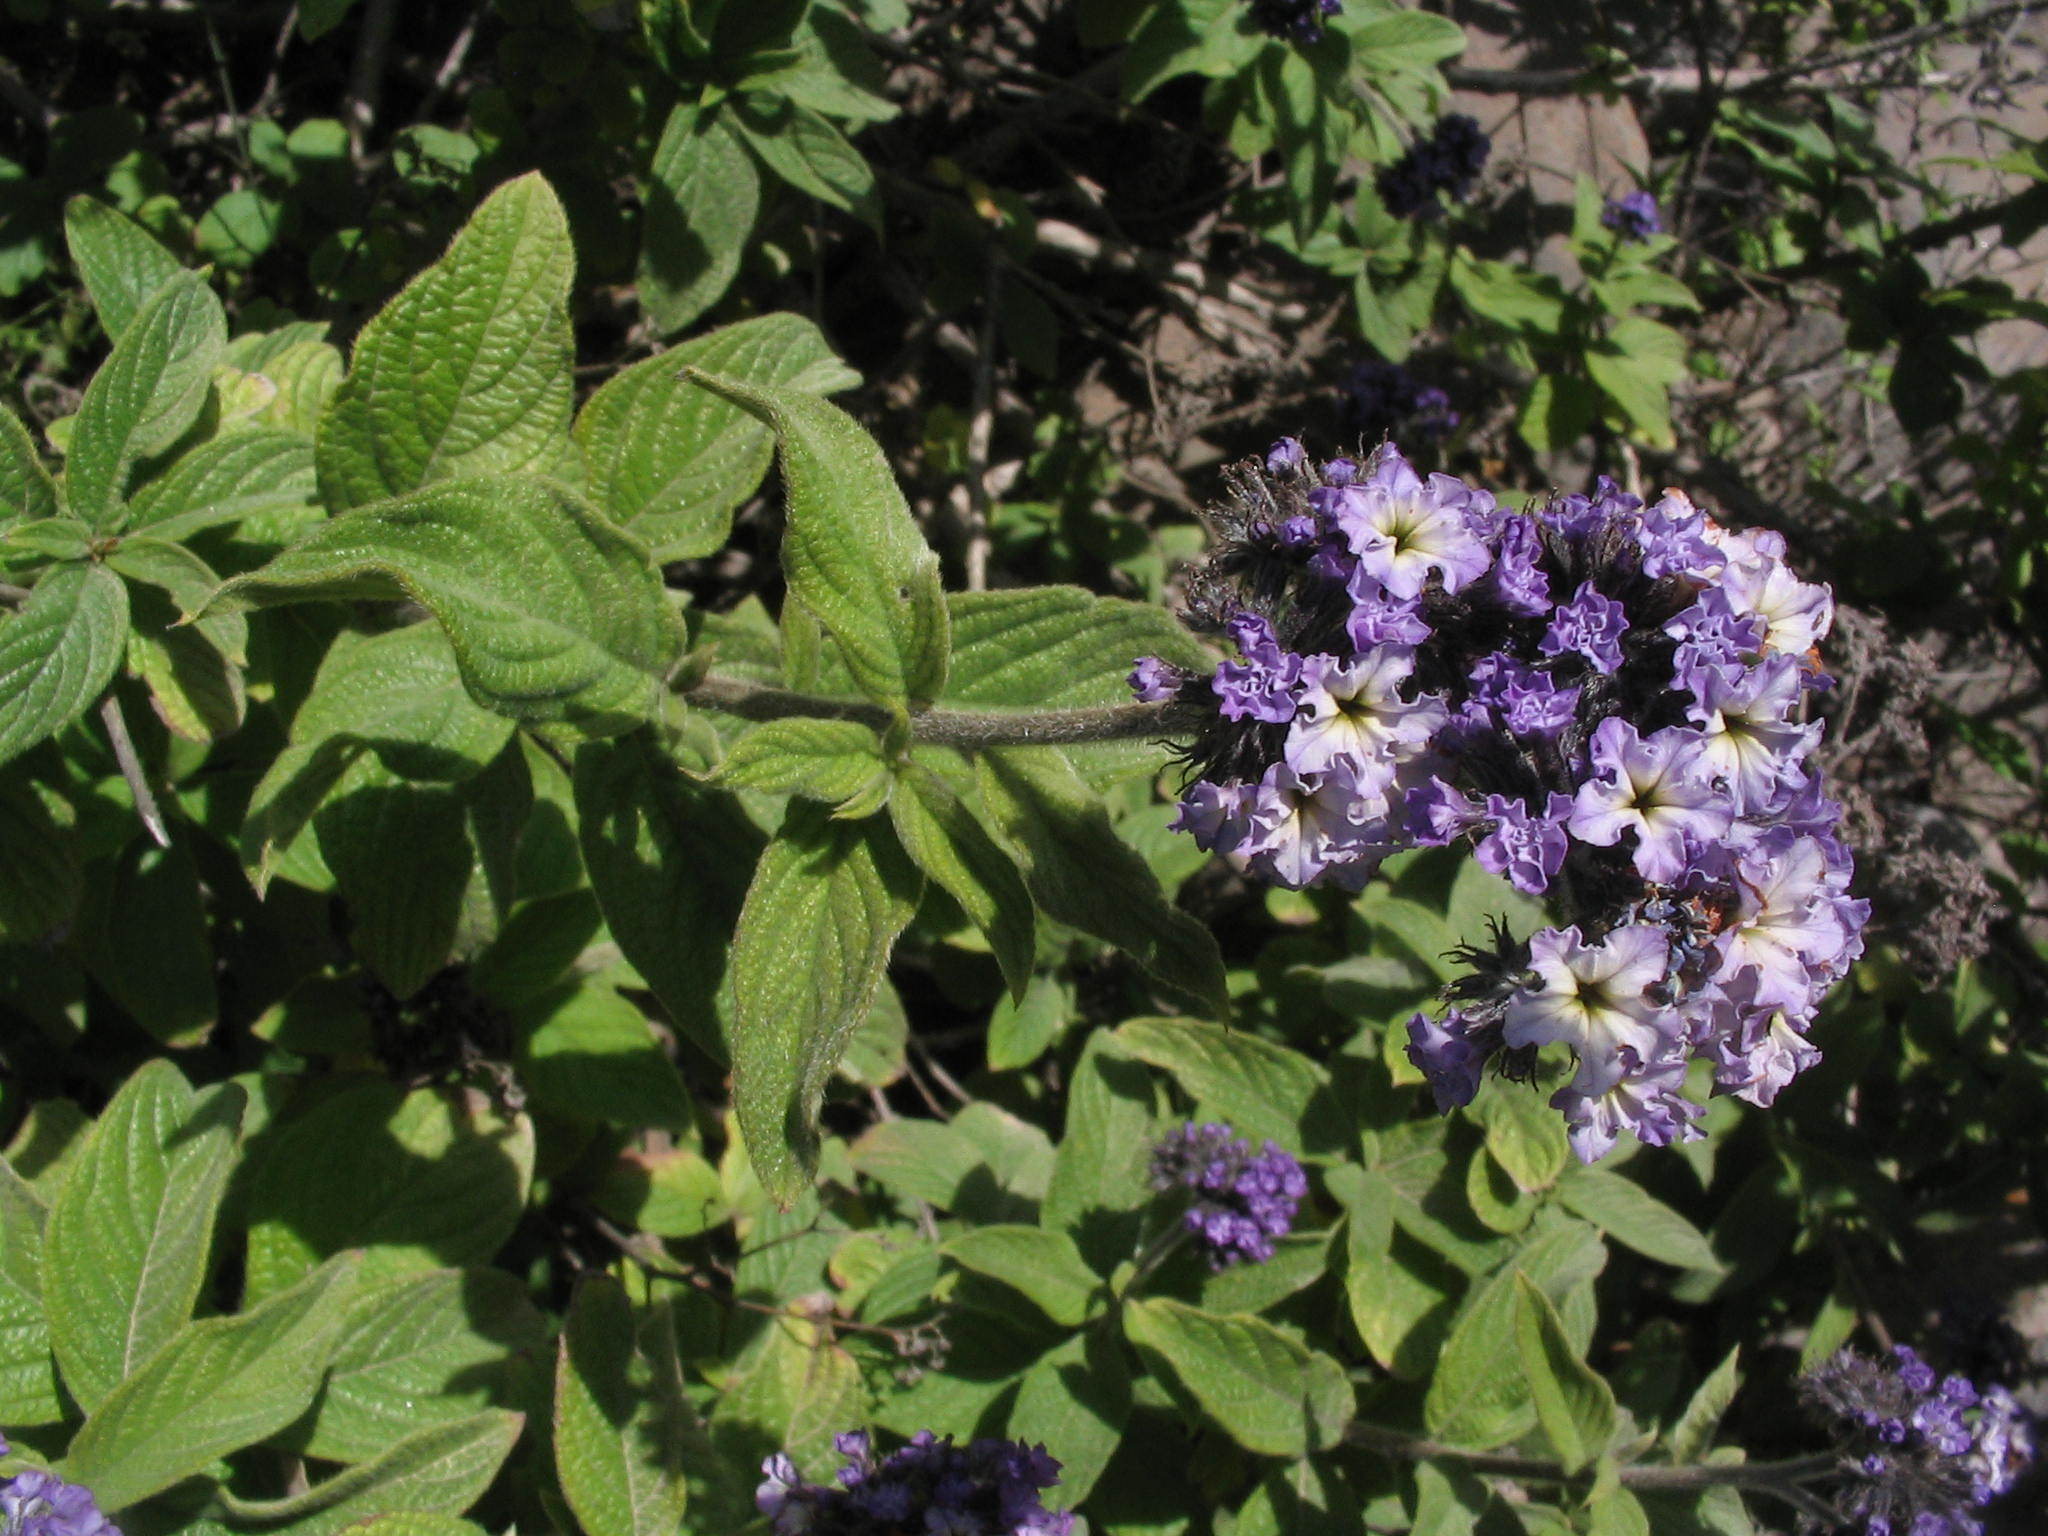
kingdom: Plantae
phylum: Tracheophyta
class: Magnoliopsida
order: Boraginales
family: Heliotropiaceae
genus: Heliotropium
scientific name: Heliotropium arborescens
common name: Cherry-pie
